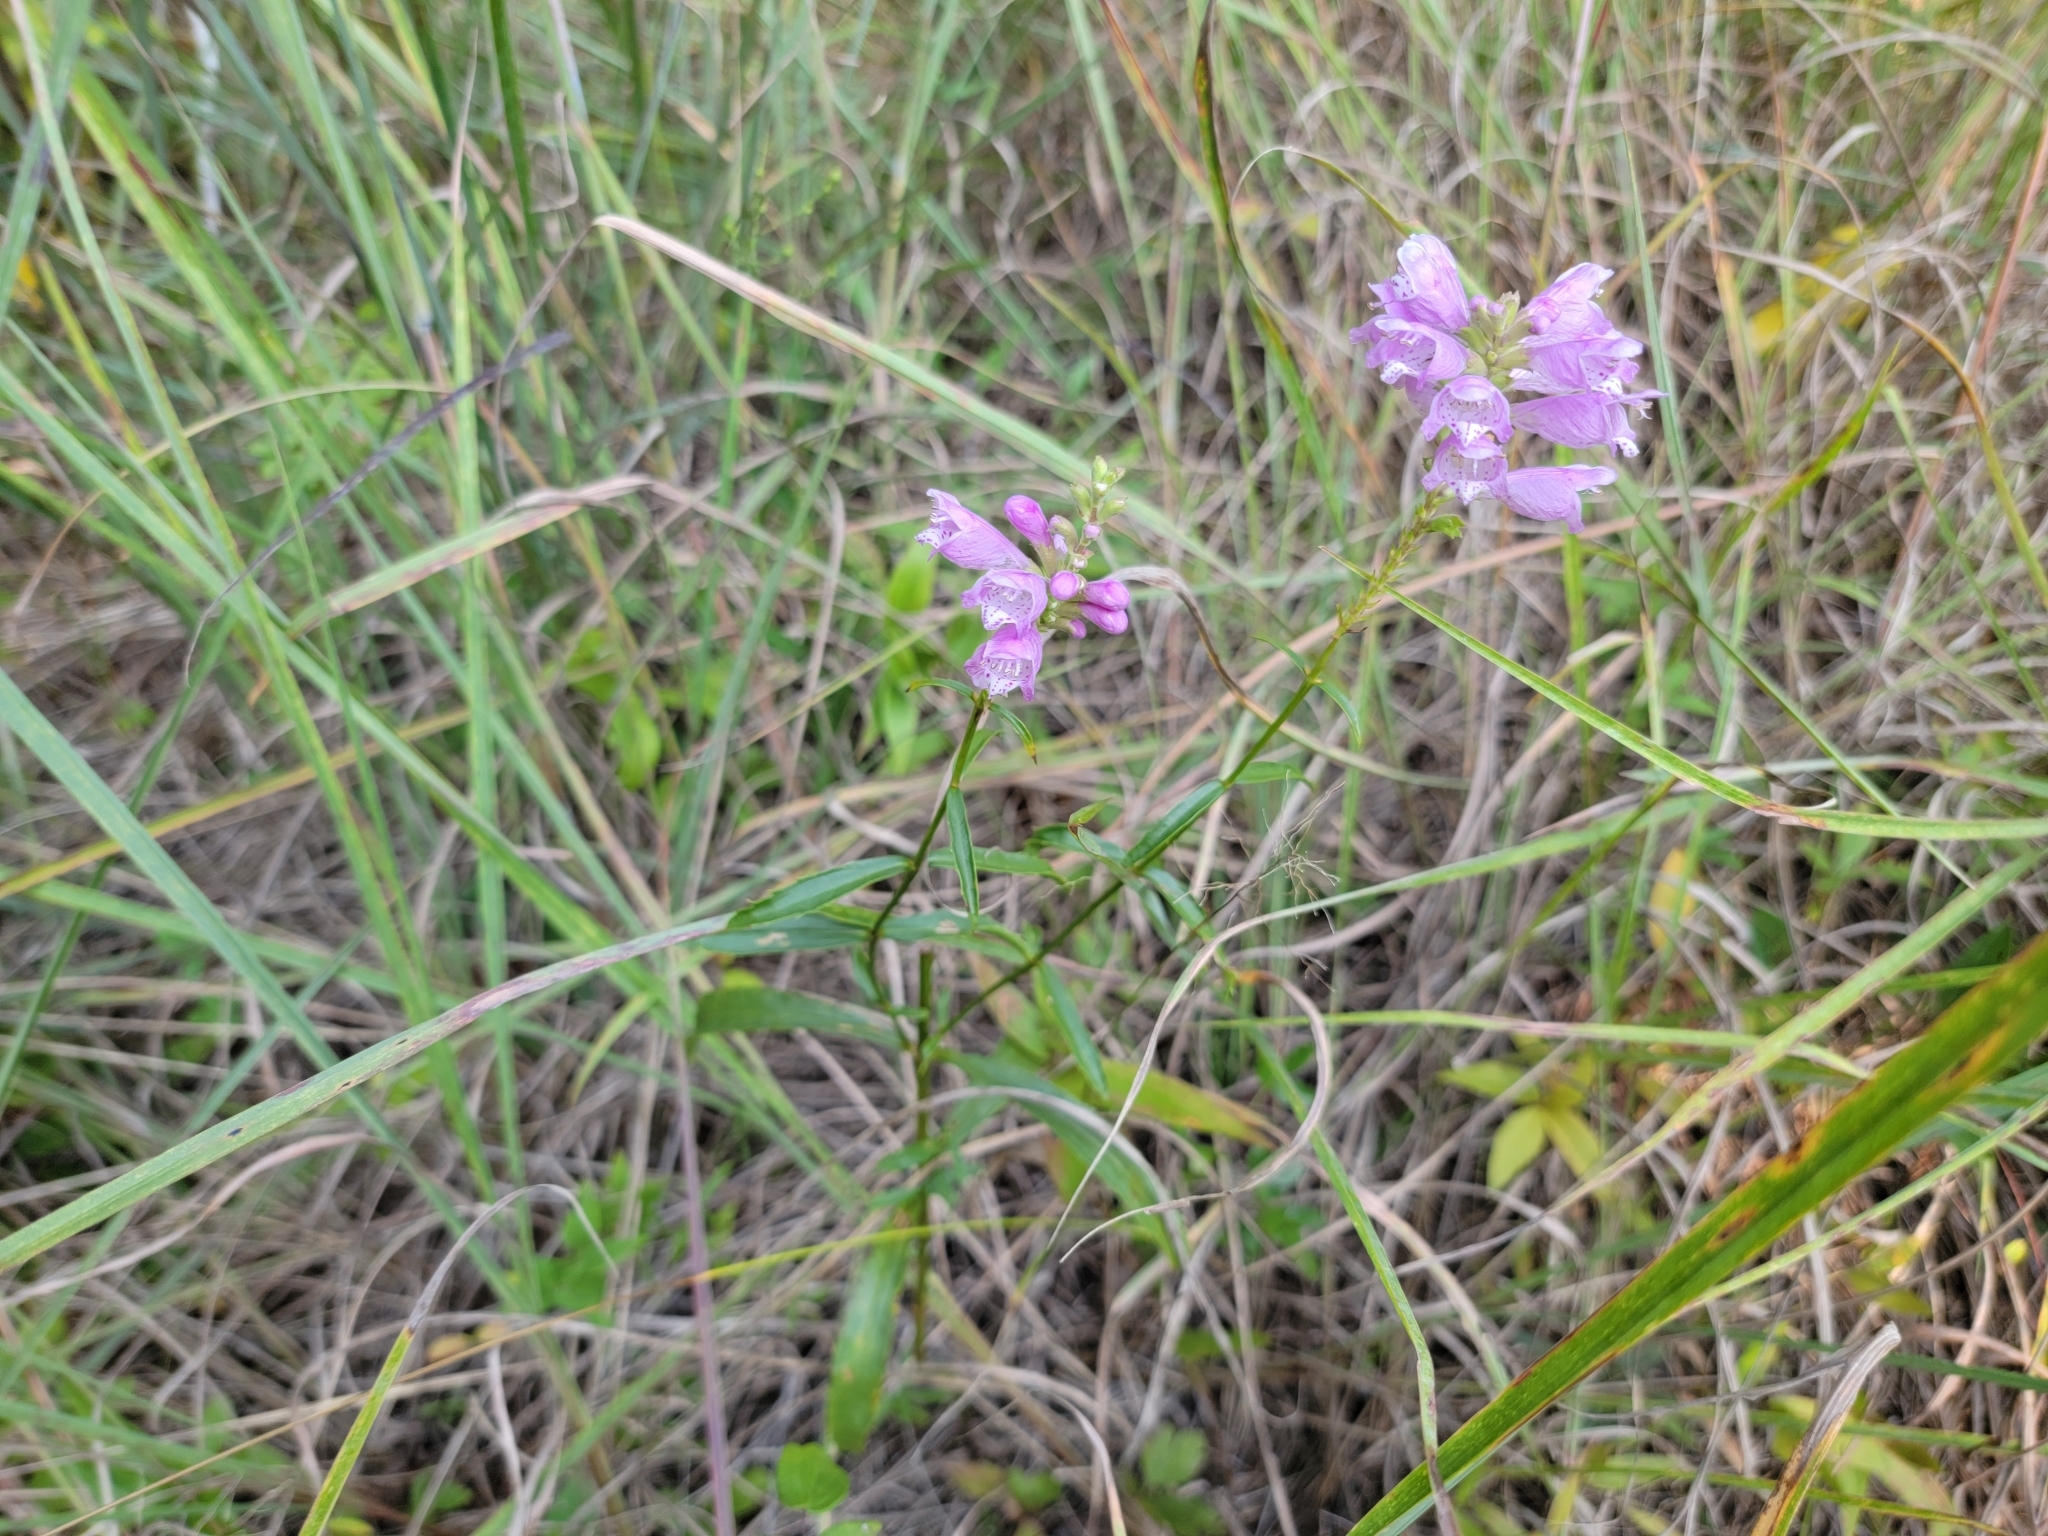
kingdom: Plantae
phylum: Tracheophyta
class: Magnoliopsida
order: Lamiales
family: Lamiaceae
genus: Physostegia
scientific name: Physostegia virginiana
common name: Obedient-plant
